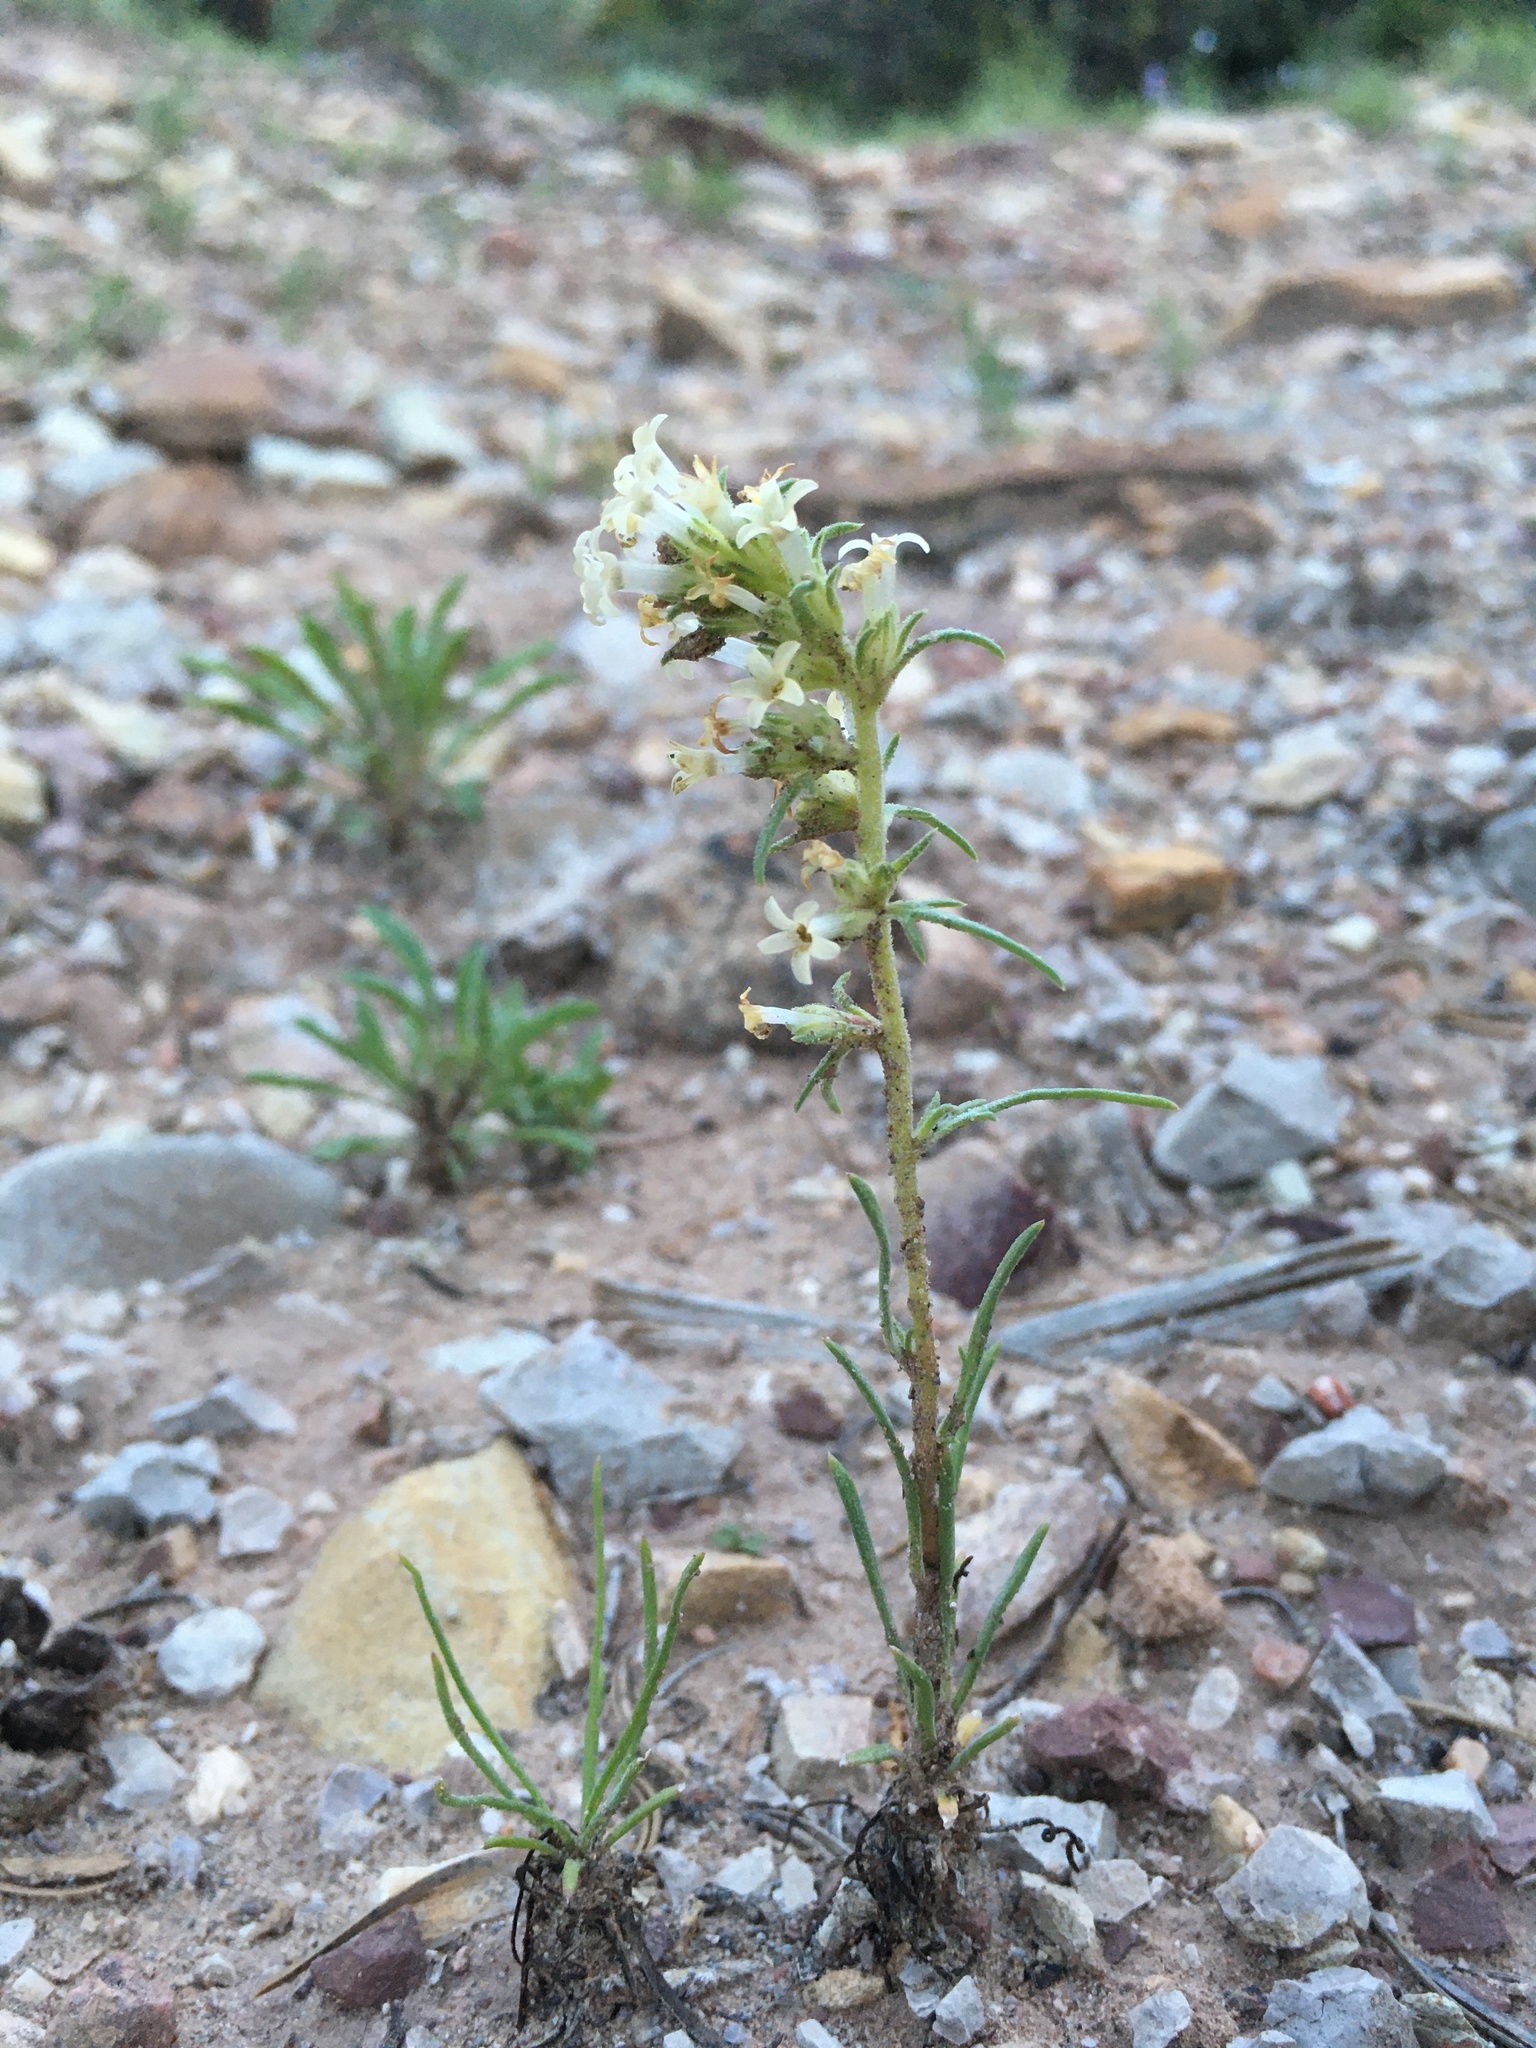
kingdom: Plantae
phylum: Tracheophyta
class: Magnoliopsida
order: Ericales
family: Polemoniaceae
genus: Ipomopsis
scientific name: Ipomopsis spicata
